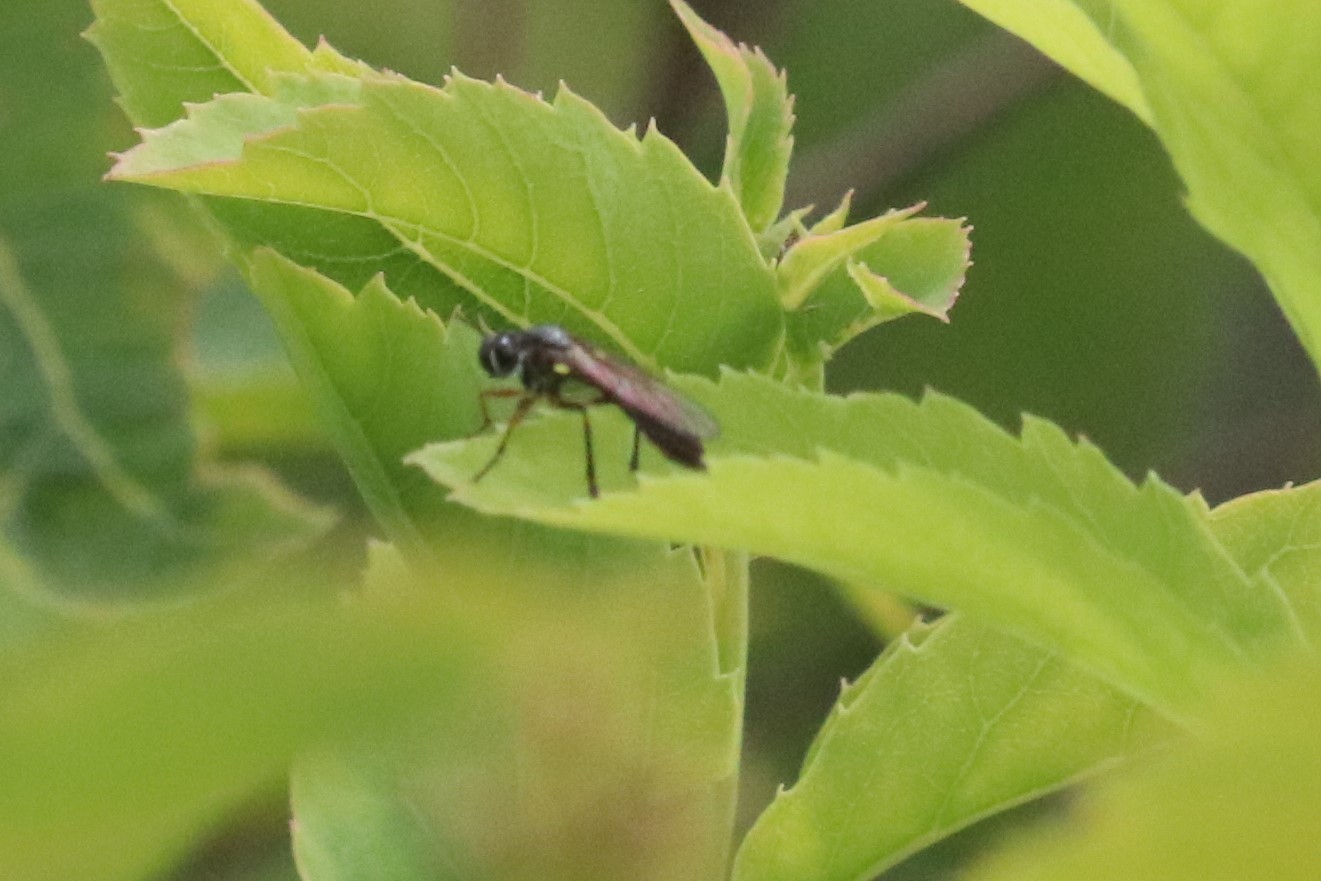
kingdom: Animalia
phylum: Arthropoda
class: Insecta
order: Diptera
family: Asilidae
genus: Dioctria
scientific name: Dioctria hyalipennis
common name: Stripe-legged robberfly
